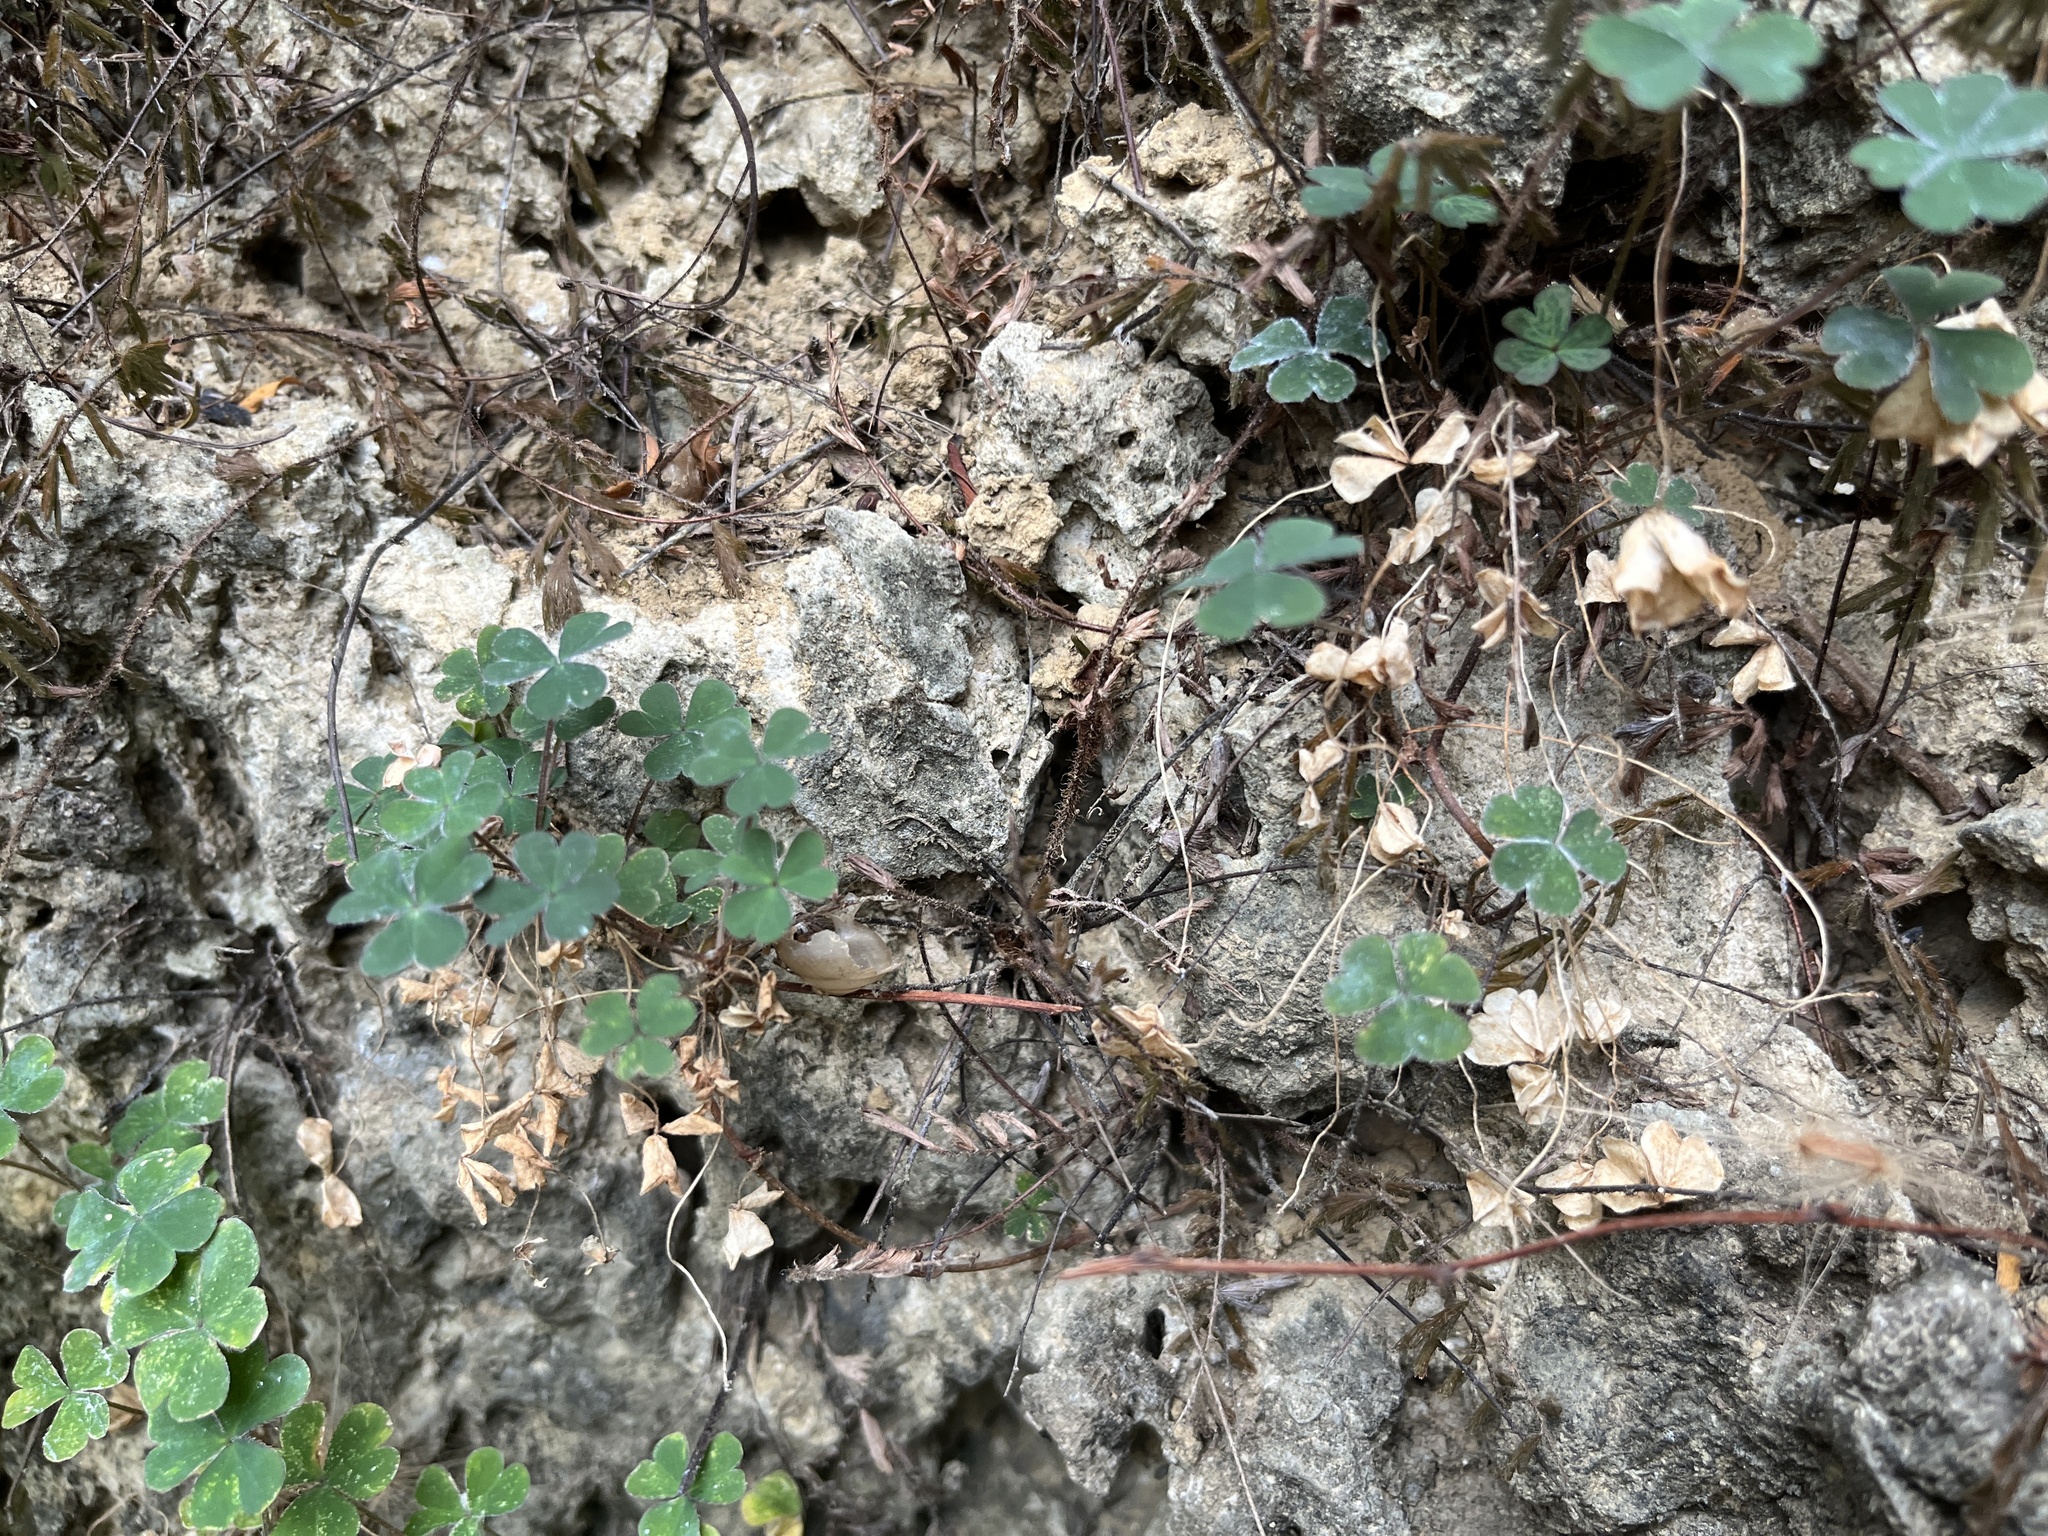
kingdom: Plantae
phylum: Tracheophyta
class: Magnoliopsida
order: Oxalidales
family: Oxalidaceae
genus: Oxalis
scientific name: Oxalis corniculata
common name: Procumbent yellow-sorrel
